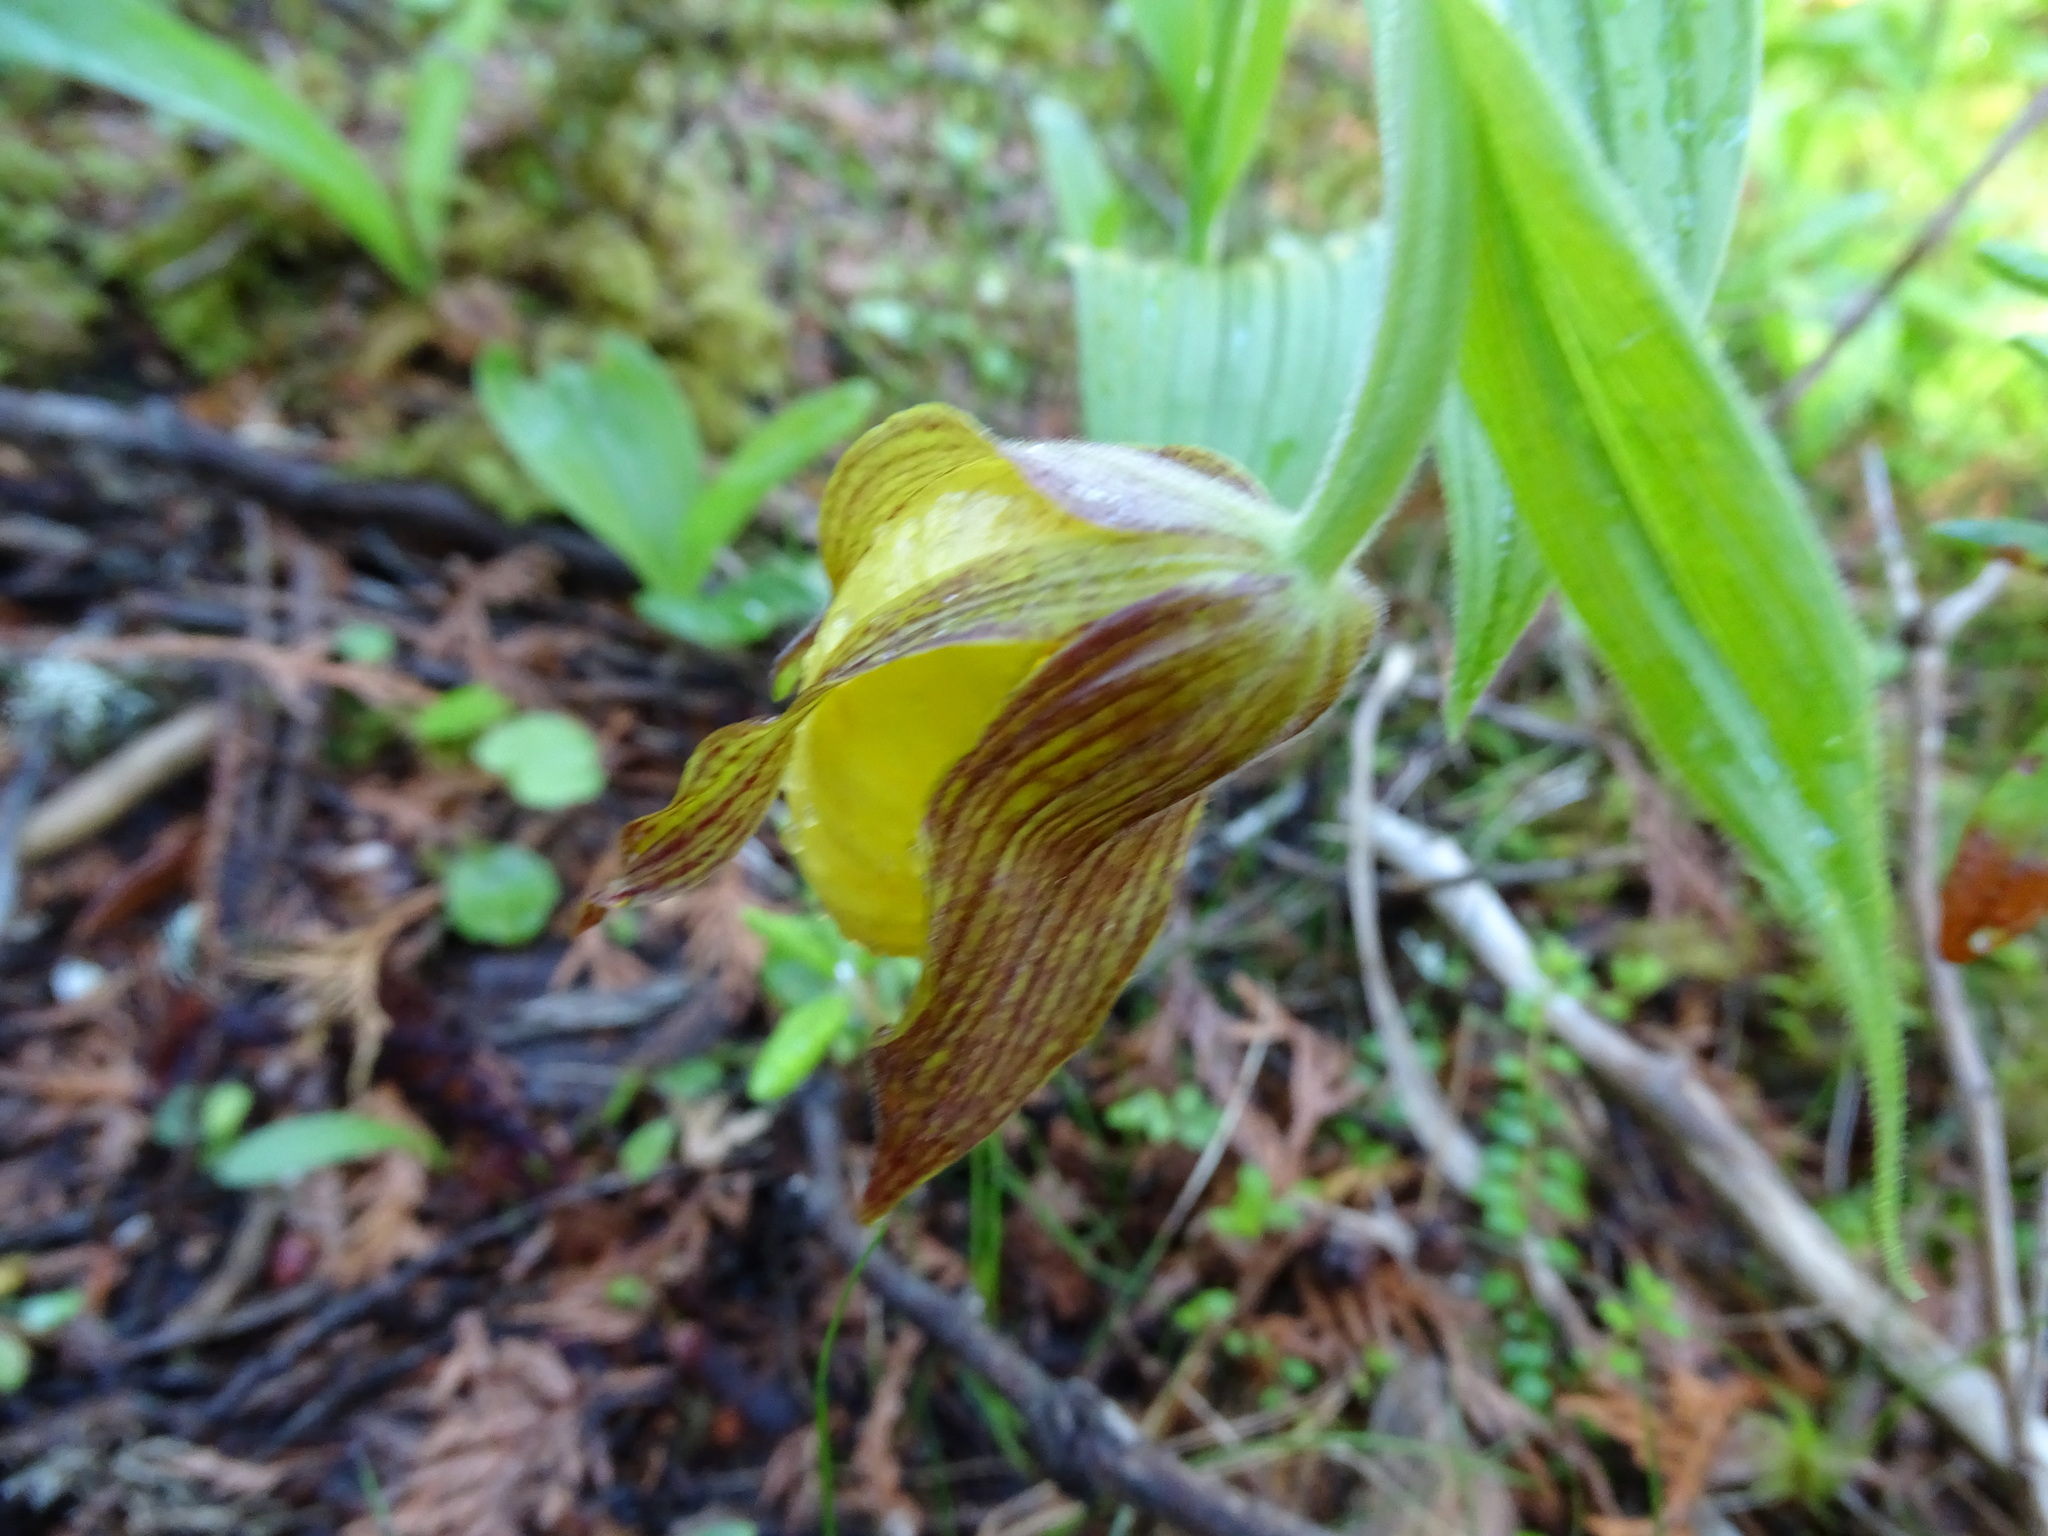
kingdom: Plantae
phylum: Tracheophyta
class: Liliopsida
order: Asparagales
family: Orchidaceae
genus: Cypripedium
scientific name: Cypripedium parviflorum
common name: American yellow lady's-slipper
